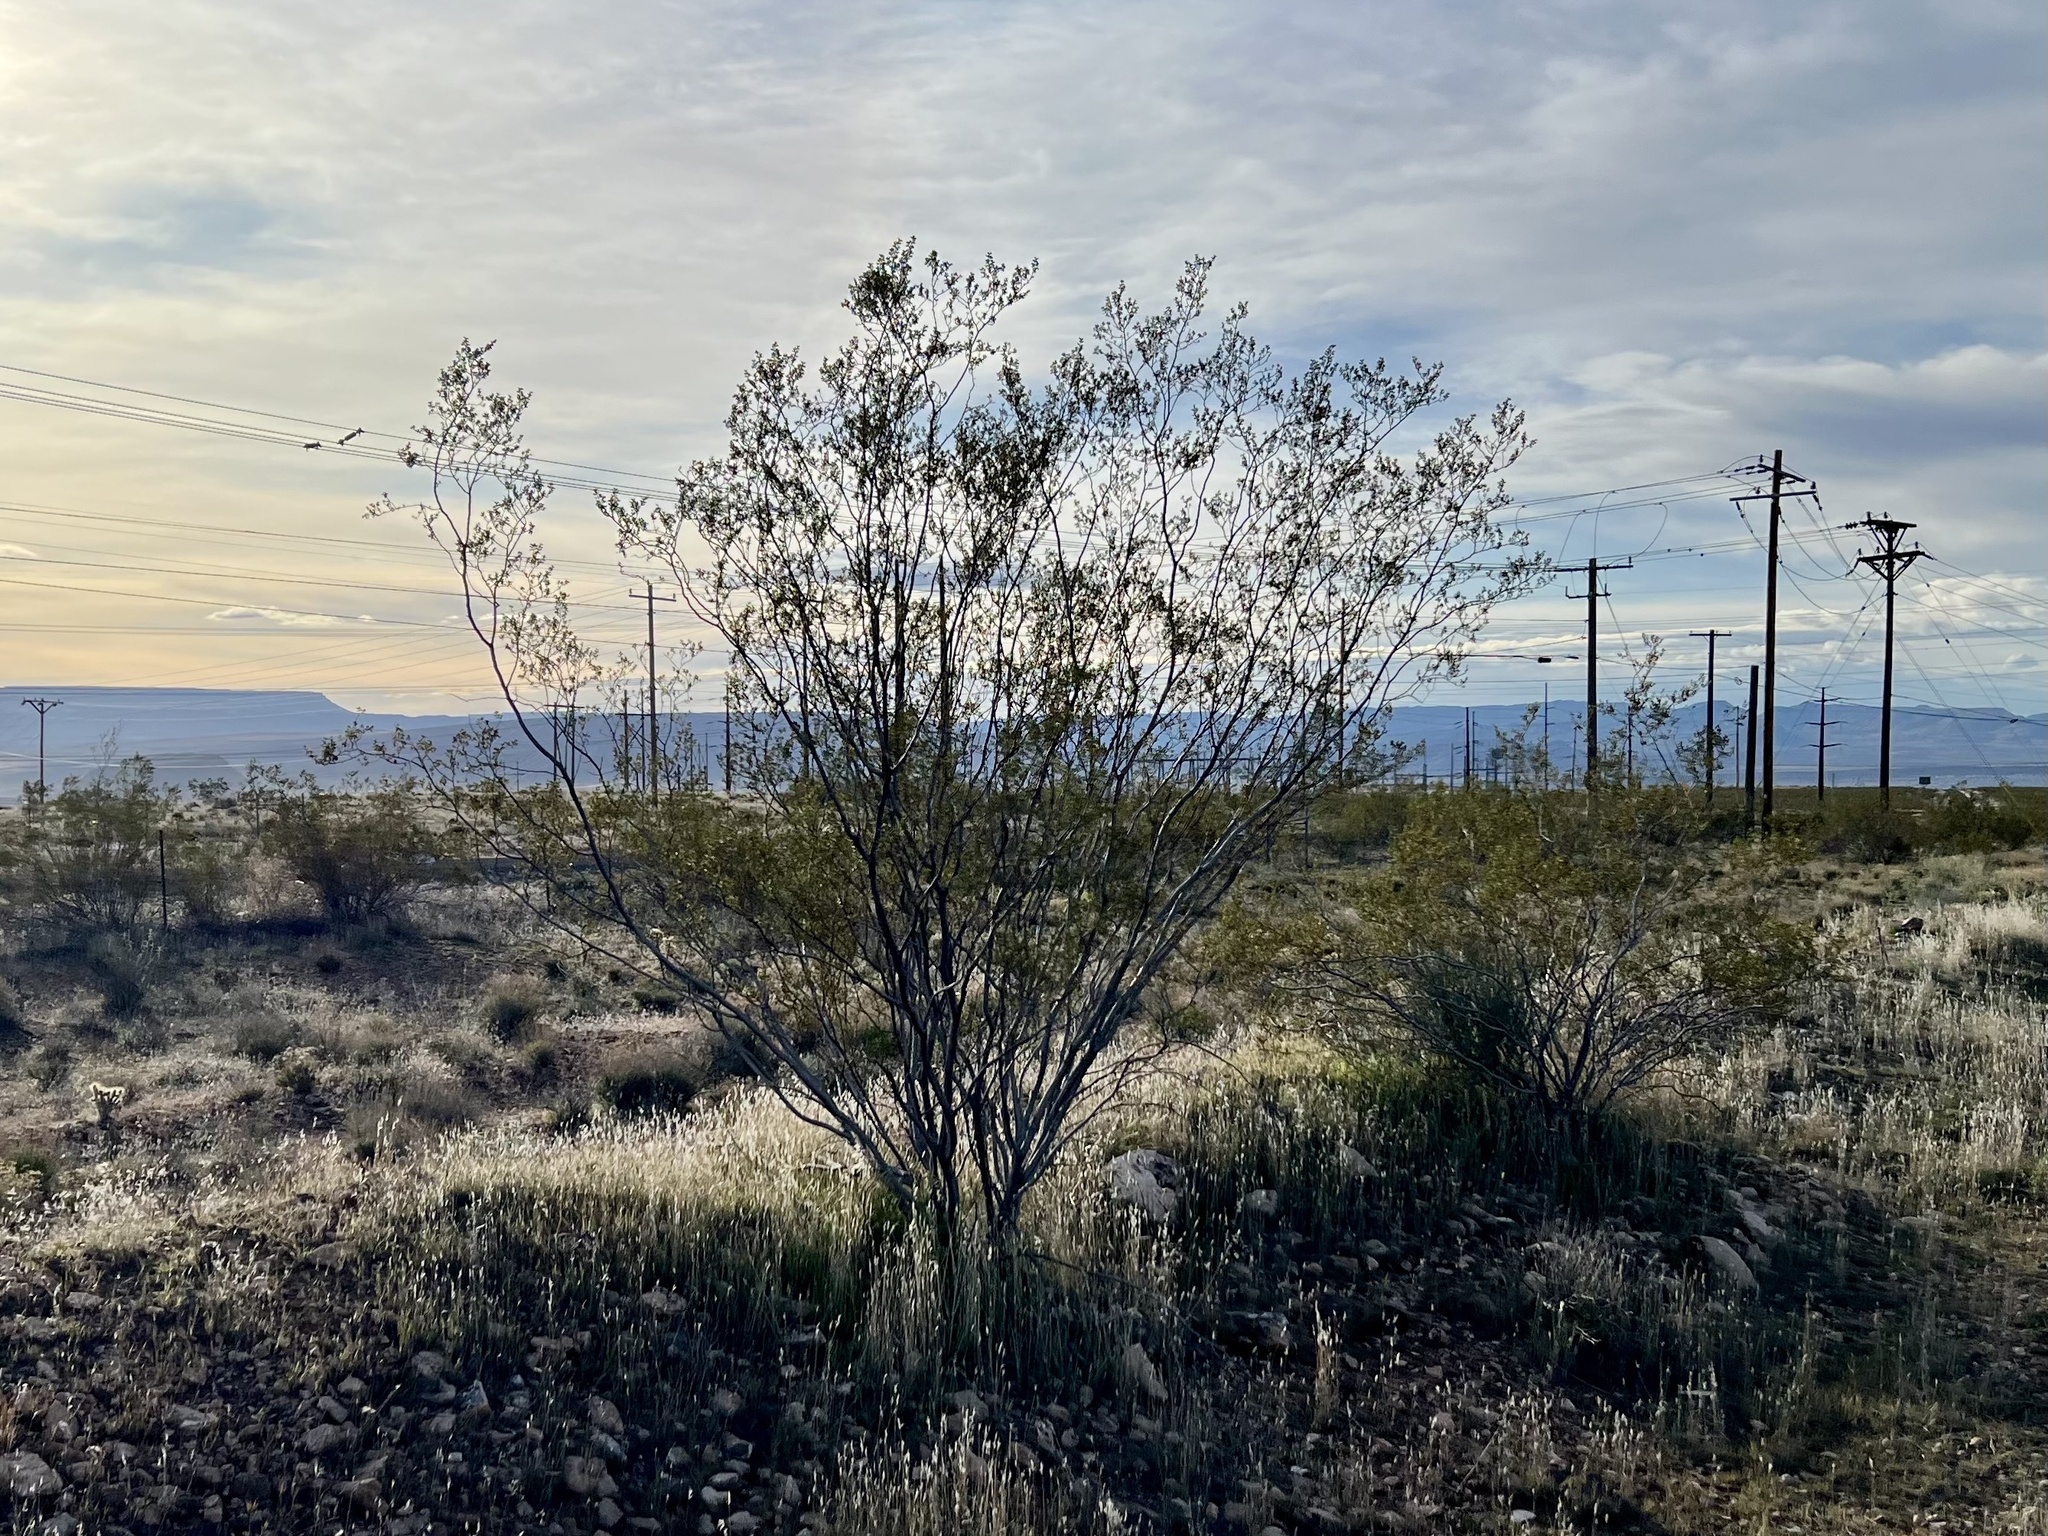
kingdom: Plantae
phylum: Tracheophyta
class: Magnoliopsida
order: Zygophyllales
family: Zygophyllaceae
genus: Larrea
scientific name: Larrea tridentata
